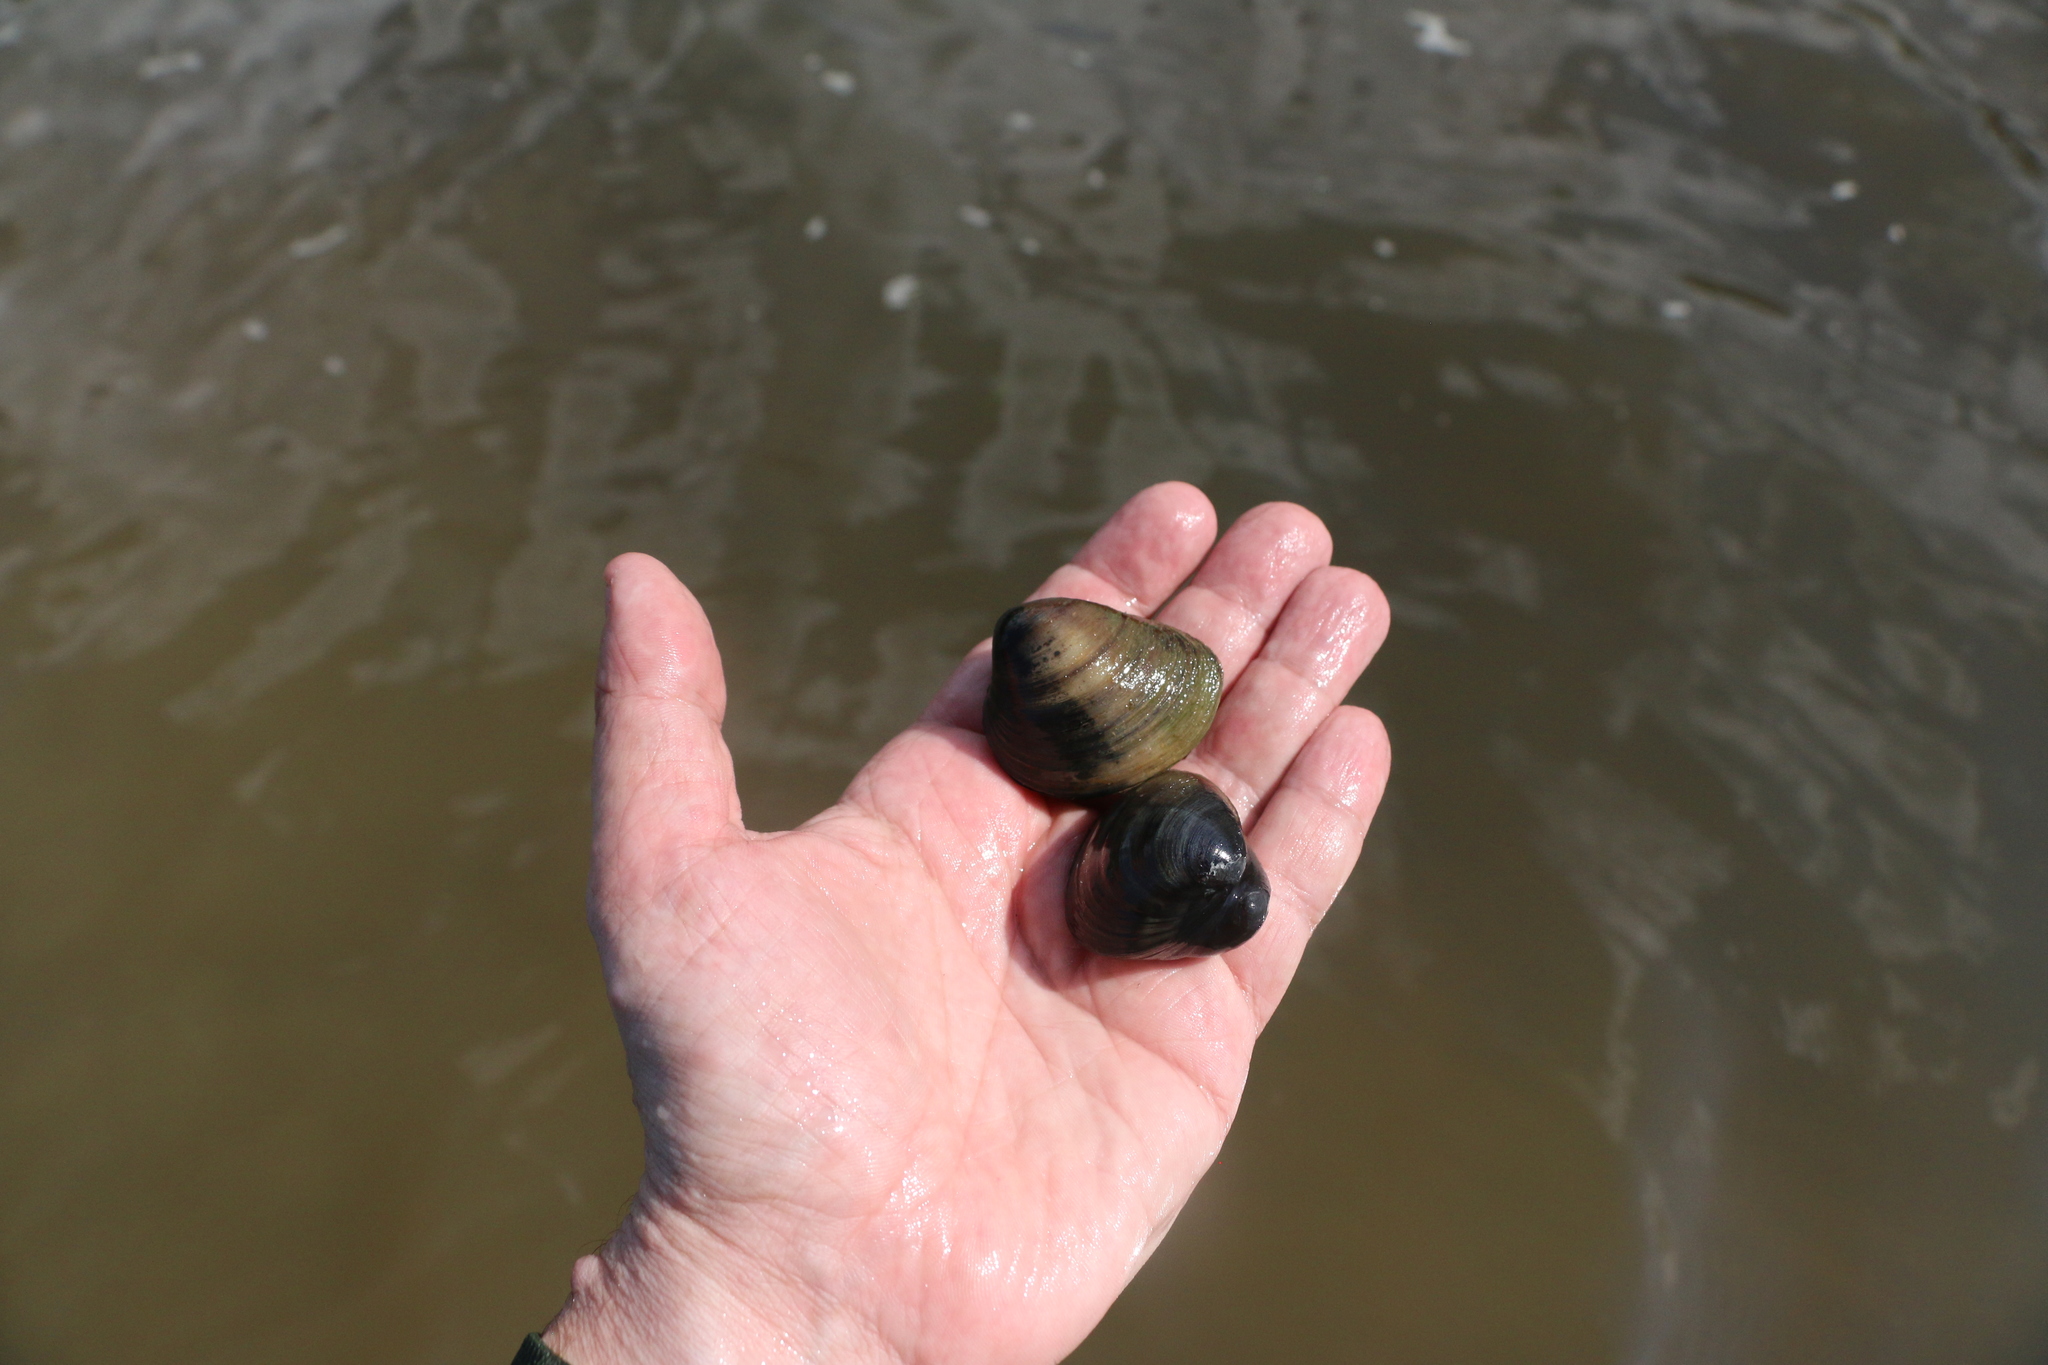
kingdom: Animalia
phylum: Mollusca
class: Bivalvia
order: Venerida
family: Mactridae
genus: Rangia
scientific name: Rangia cuneata
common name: Atlantic rangia
